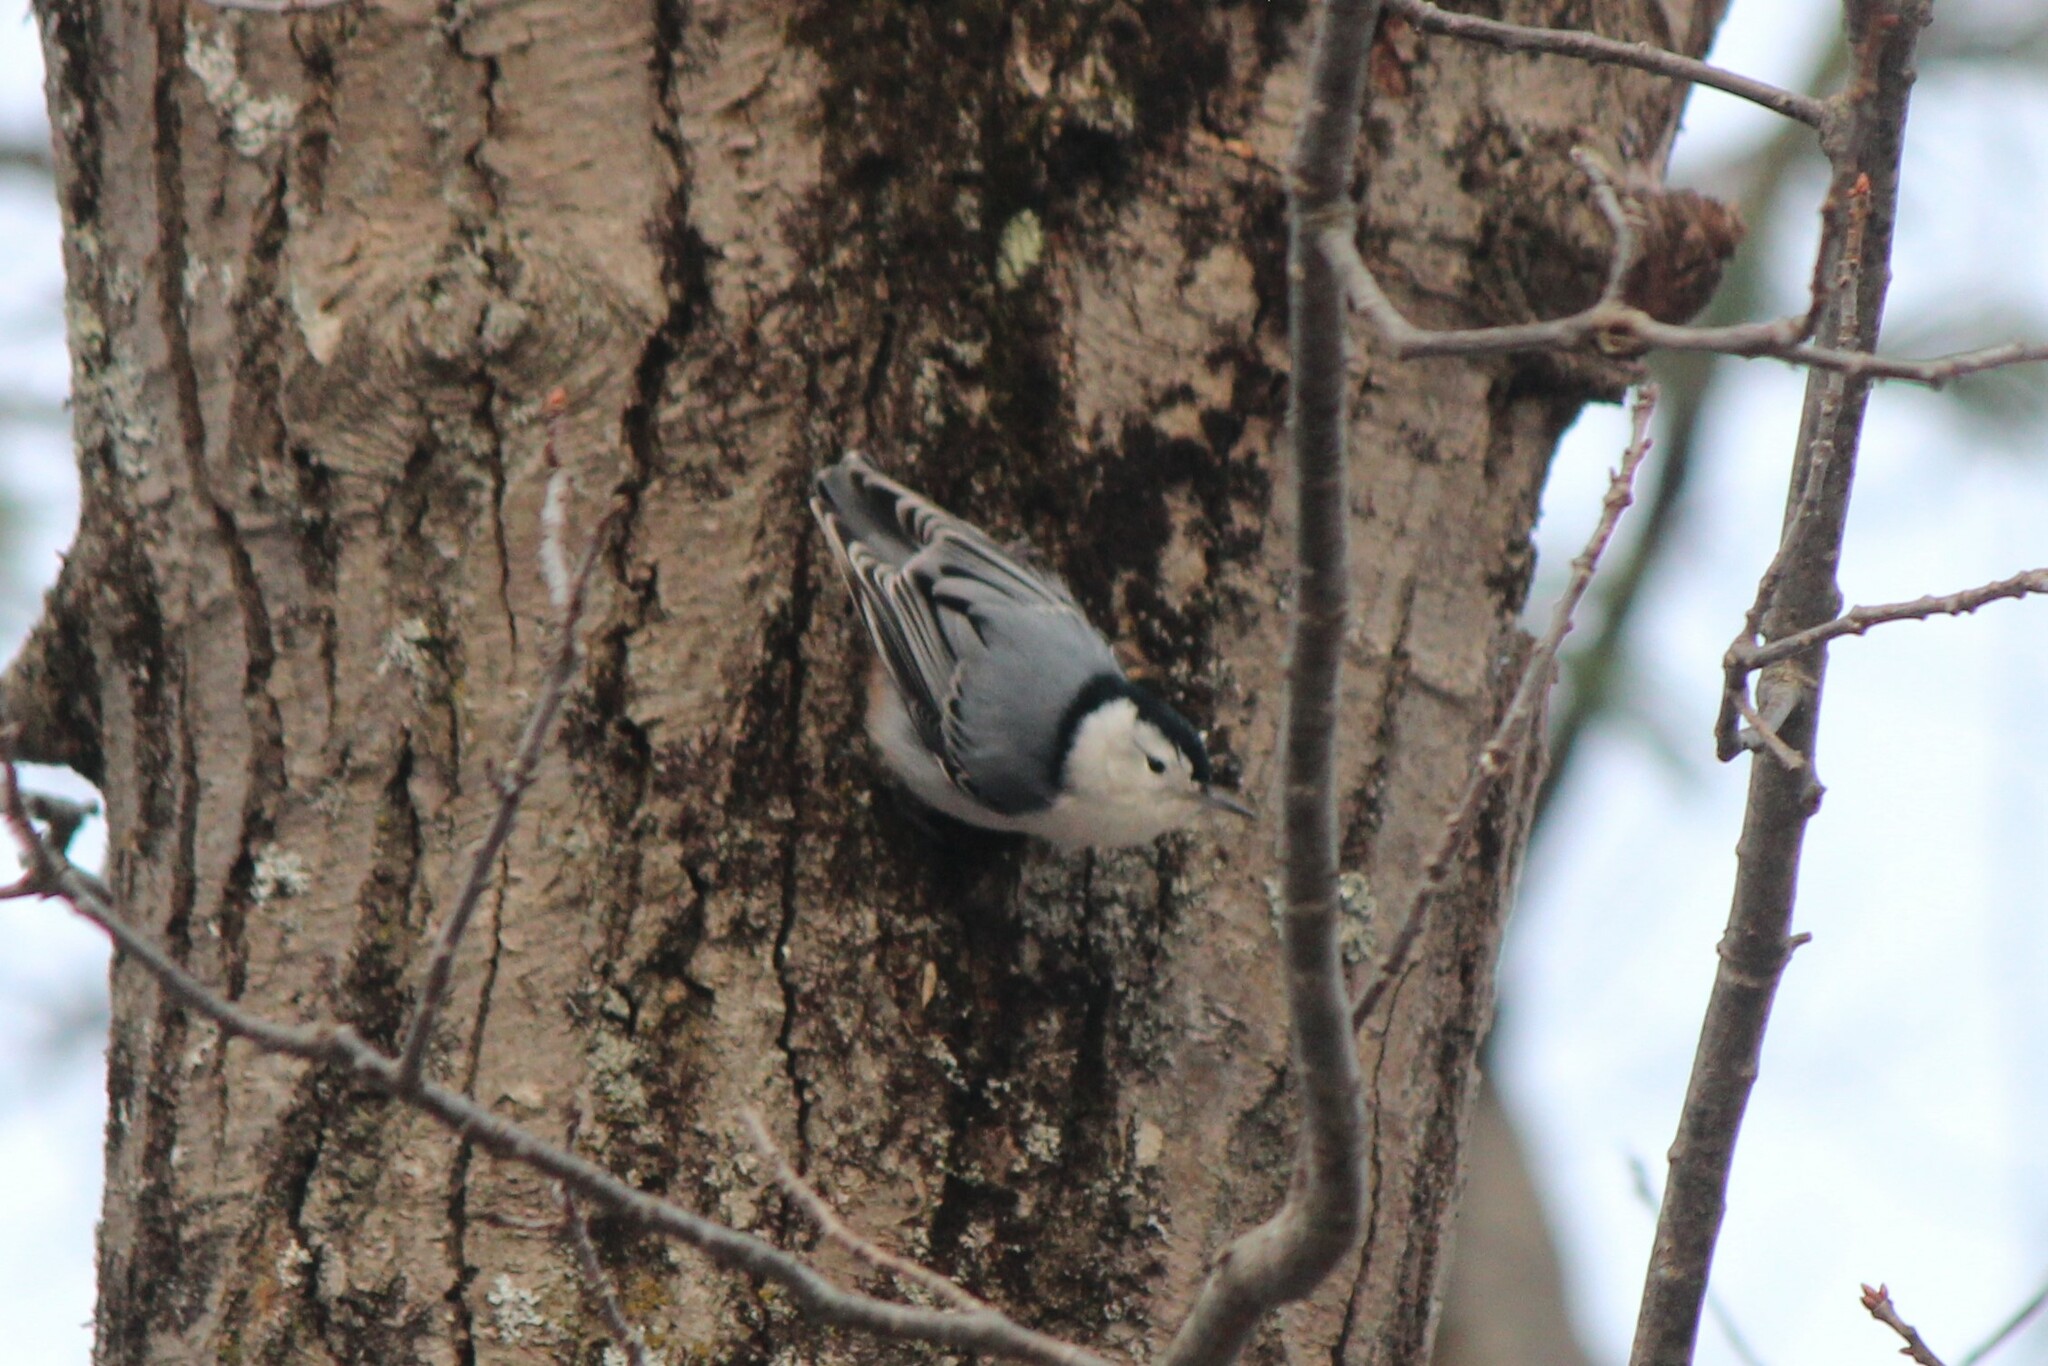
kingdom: Animalia
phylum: Chordata
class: Aves
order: Passeriformes
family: Sittidae
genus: Sitta
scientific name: Sitta carolinensis
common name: White-breasted nuthatch
